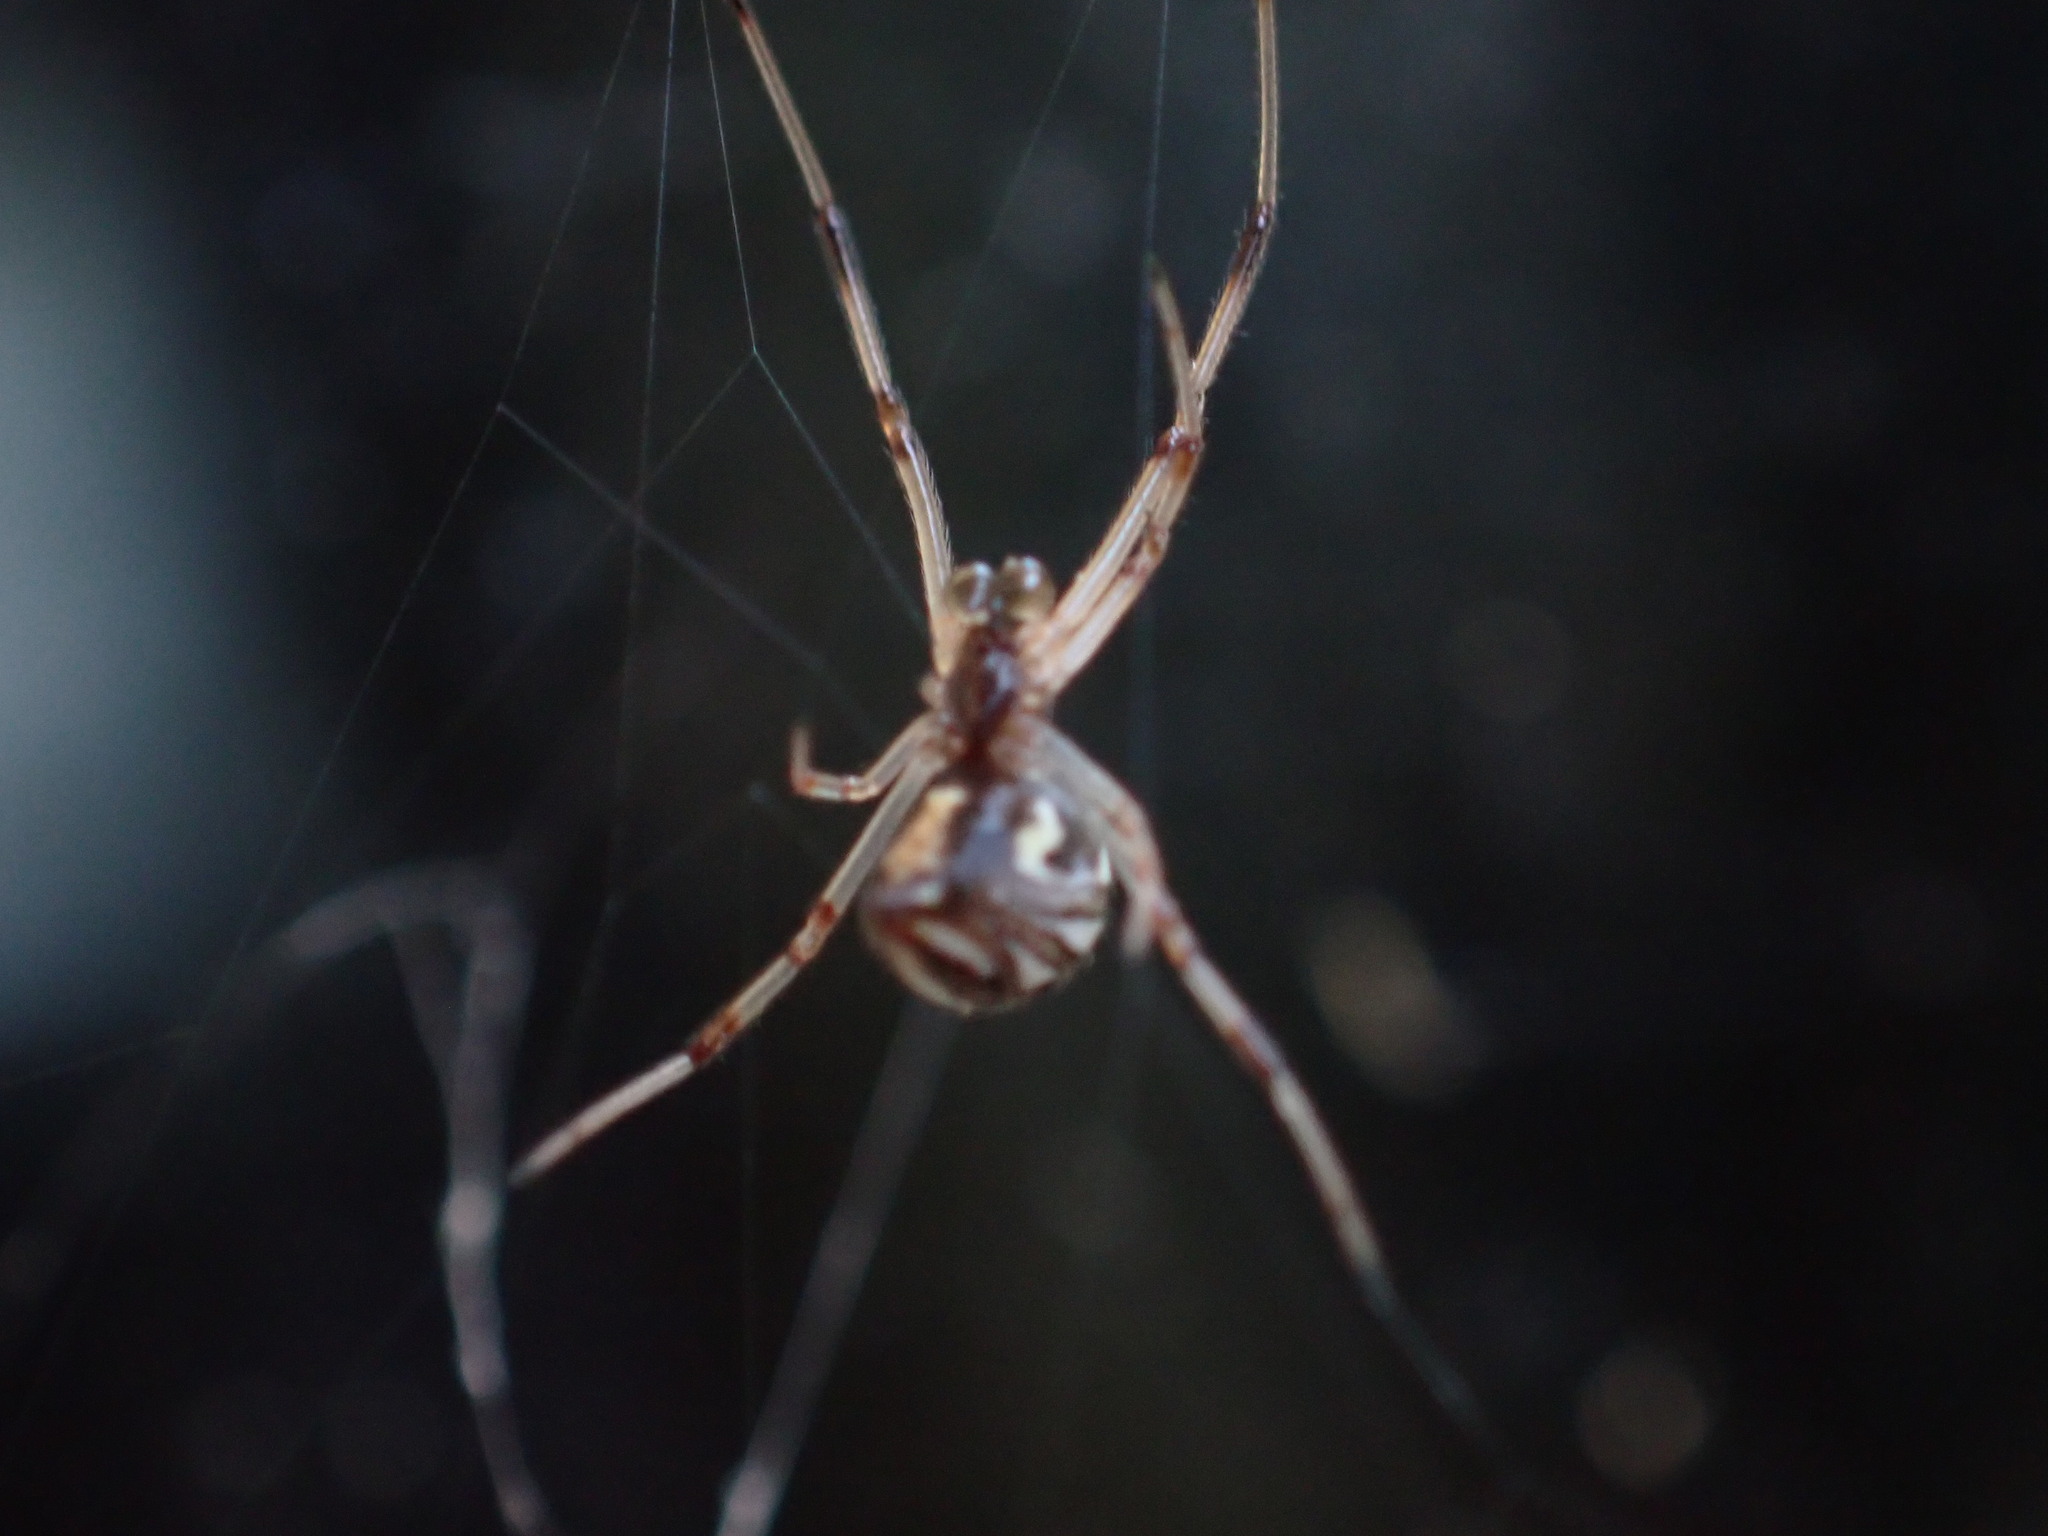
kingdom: Animalia
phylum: Arthropoda
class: Arachnida
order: Araneae
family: Theridiidae
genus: Latrodectus
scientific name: Latrodectus geometricus
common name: Brown widow spider
